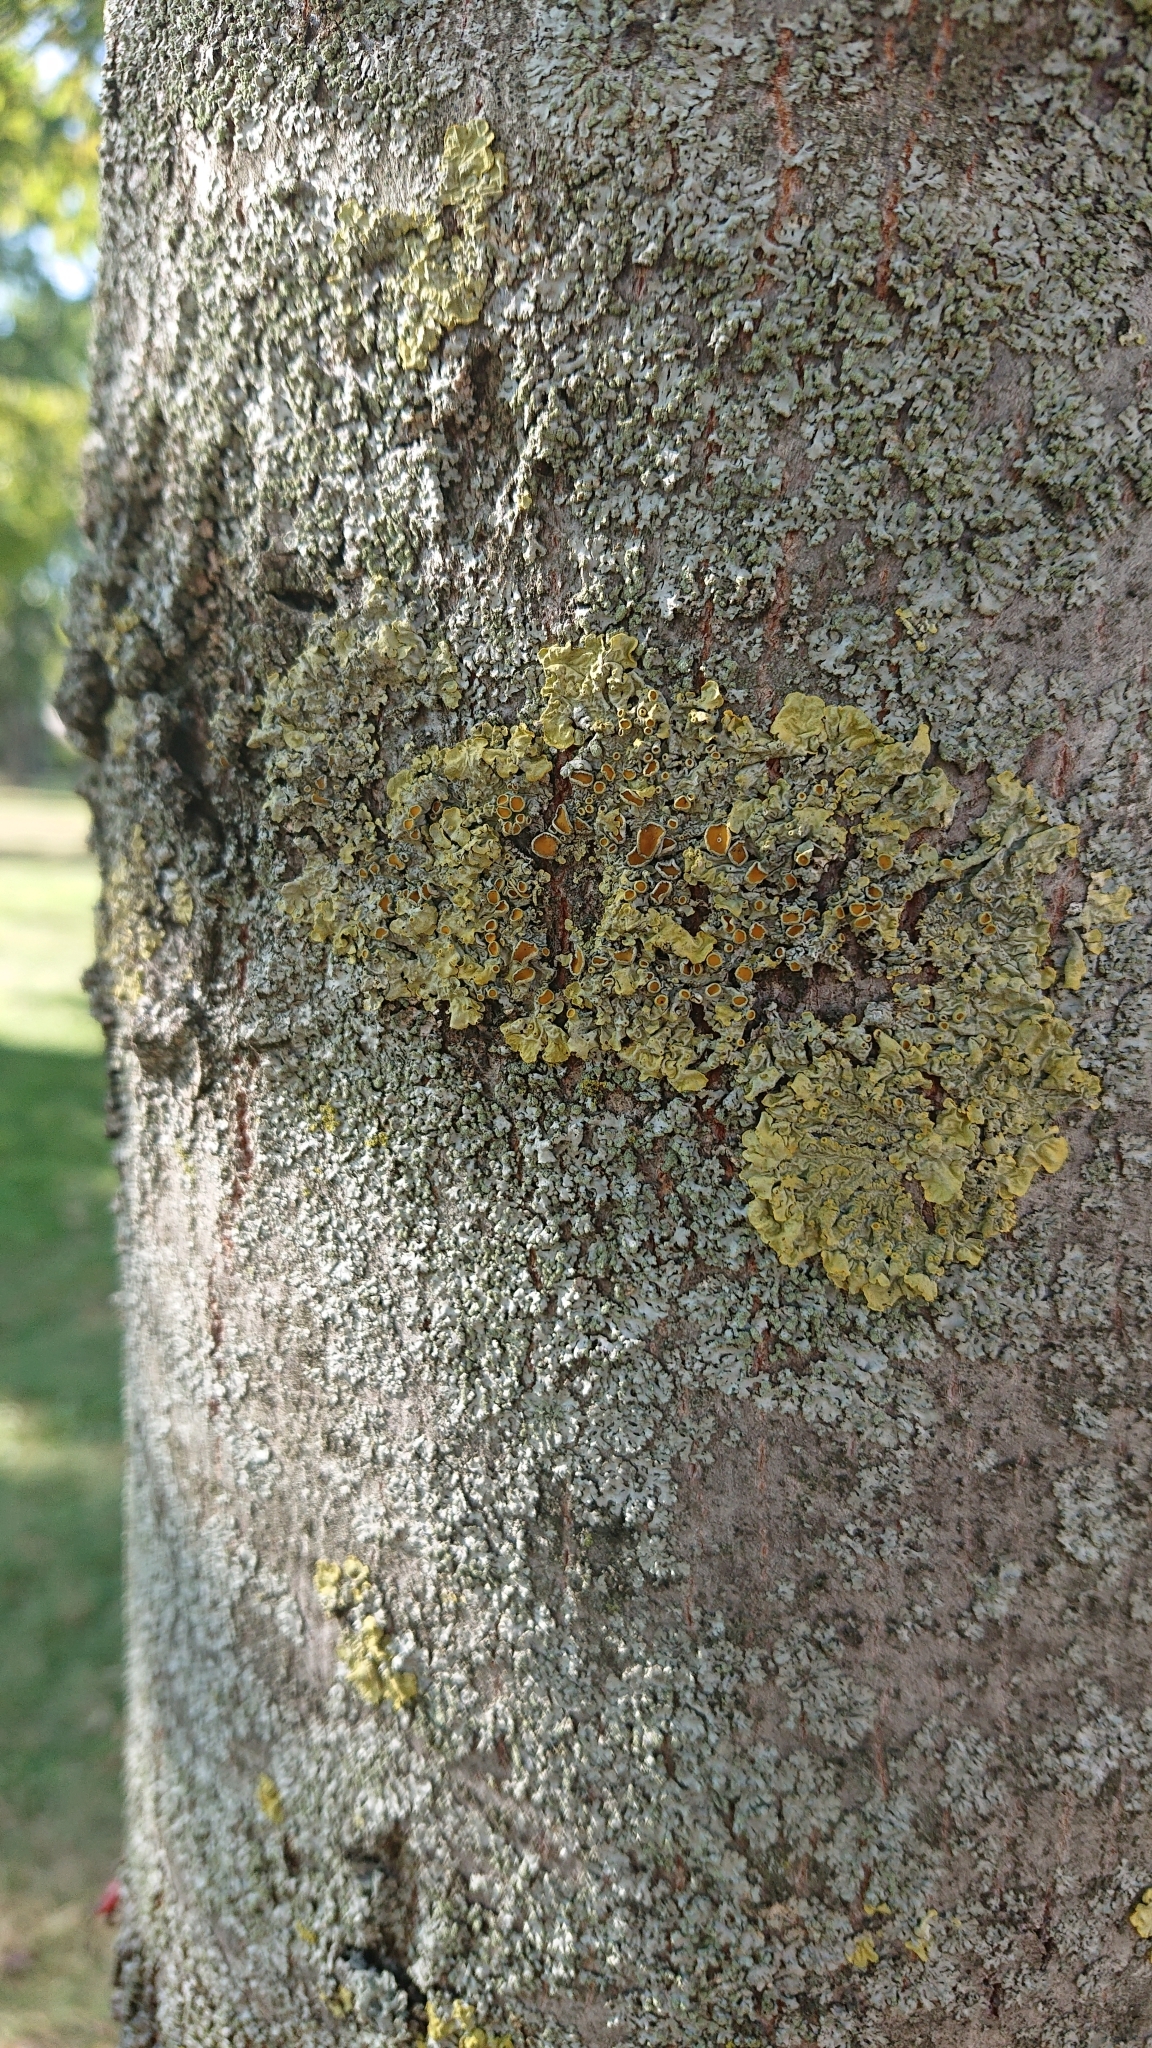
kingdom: Fungi
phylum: Ascomycota
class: Lecanoromycetes
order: Teloschistales
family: Teloschistaceae
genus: Xanthoria
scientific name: Xanthoria parietina
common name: Common orange lichen
